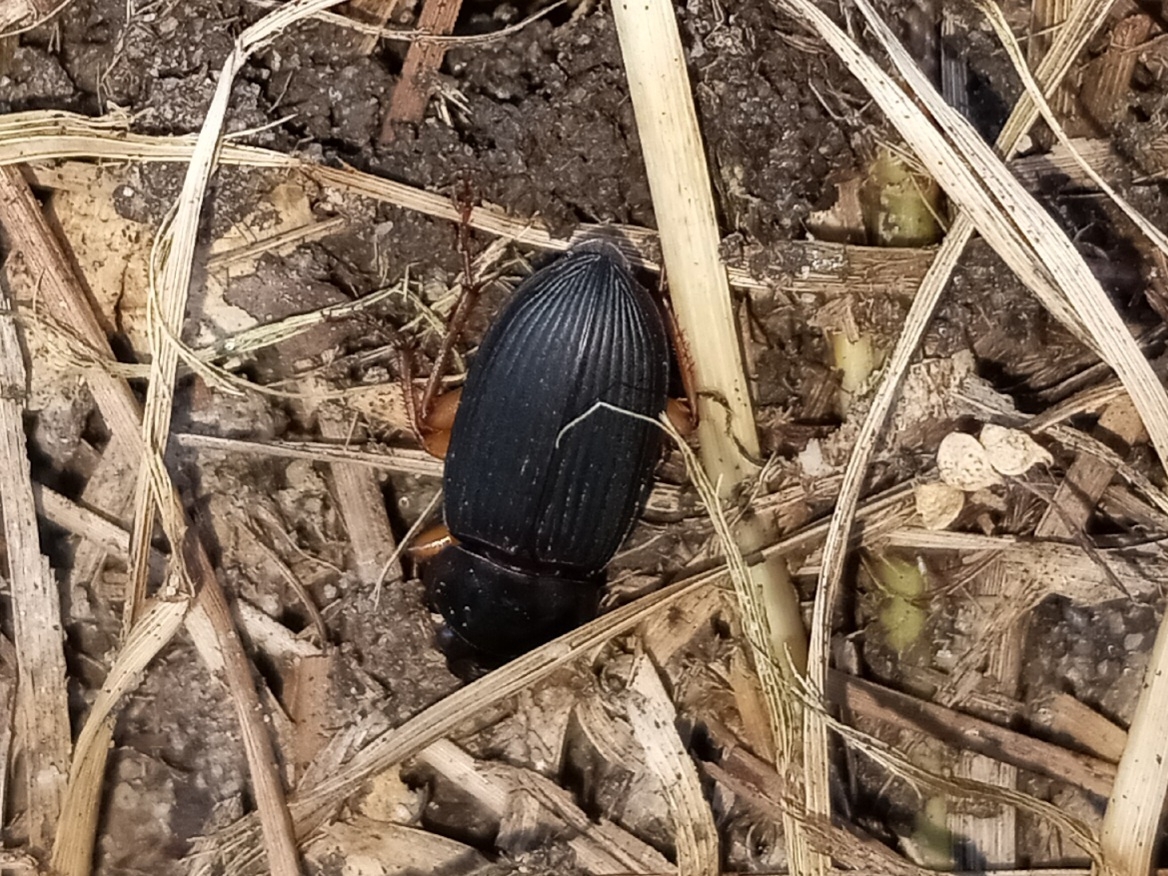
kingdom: Animalia
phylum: Arthropoda
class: Insecta
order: Coleoptera
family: Carabidae
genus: Harpalus
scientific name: Harpalus pensylvanicus
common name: Pennsylvania dingy ground beetle
